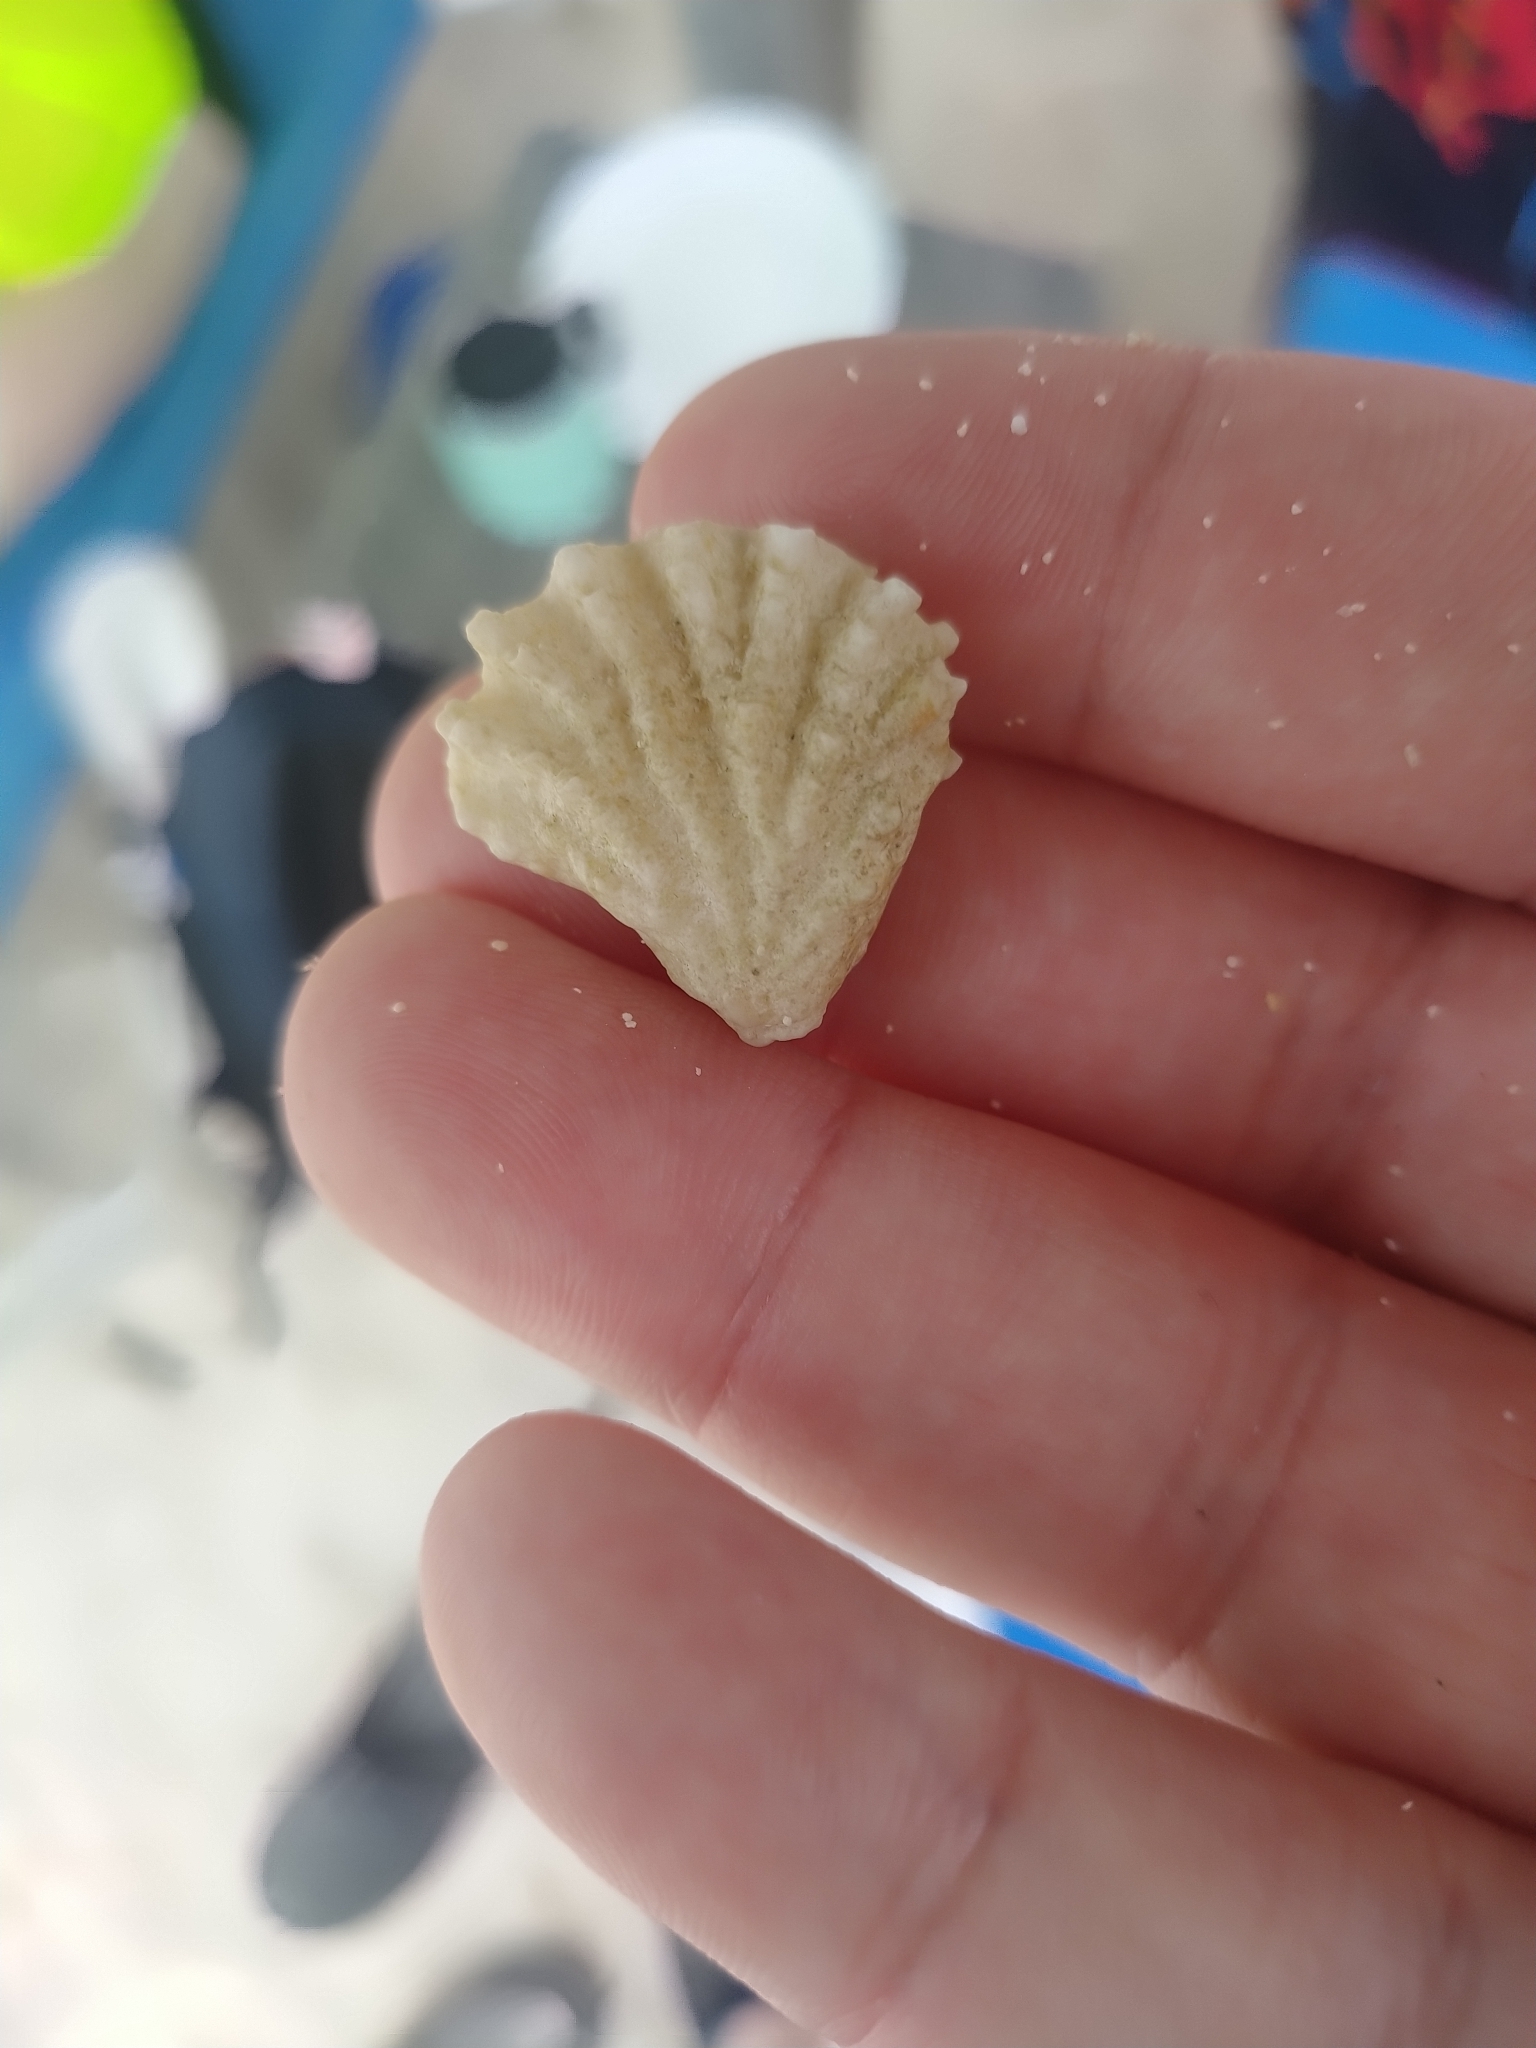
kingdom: Animalia
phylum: Mollusca
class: Bivalvia
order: Pectinida
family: Plicatulidae
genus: Plicatula
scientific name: Plicatula gibbosa
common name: Atlantic kitten's paw
